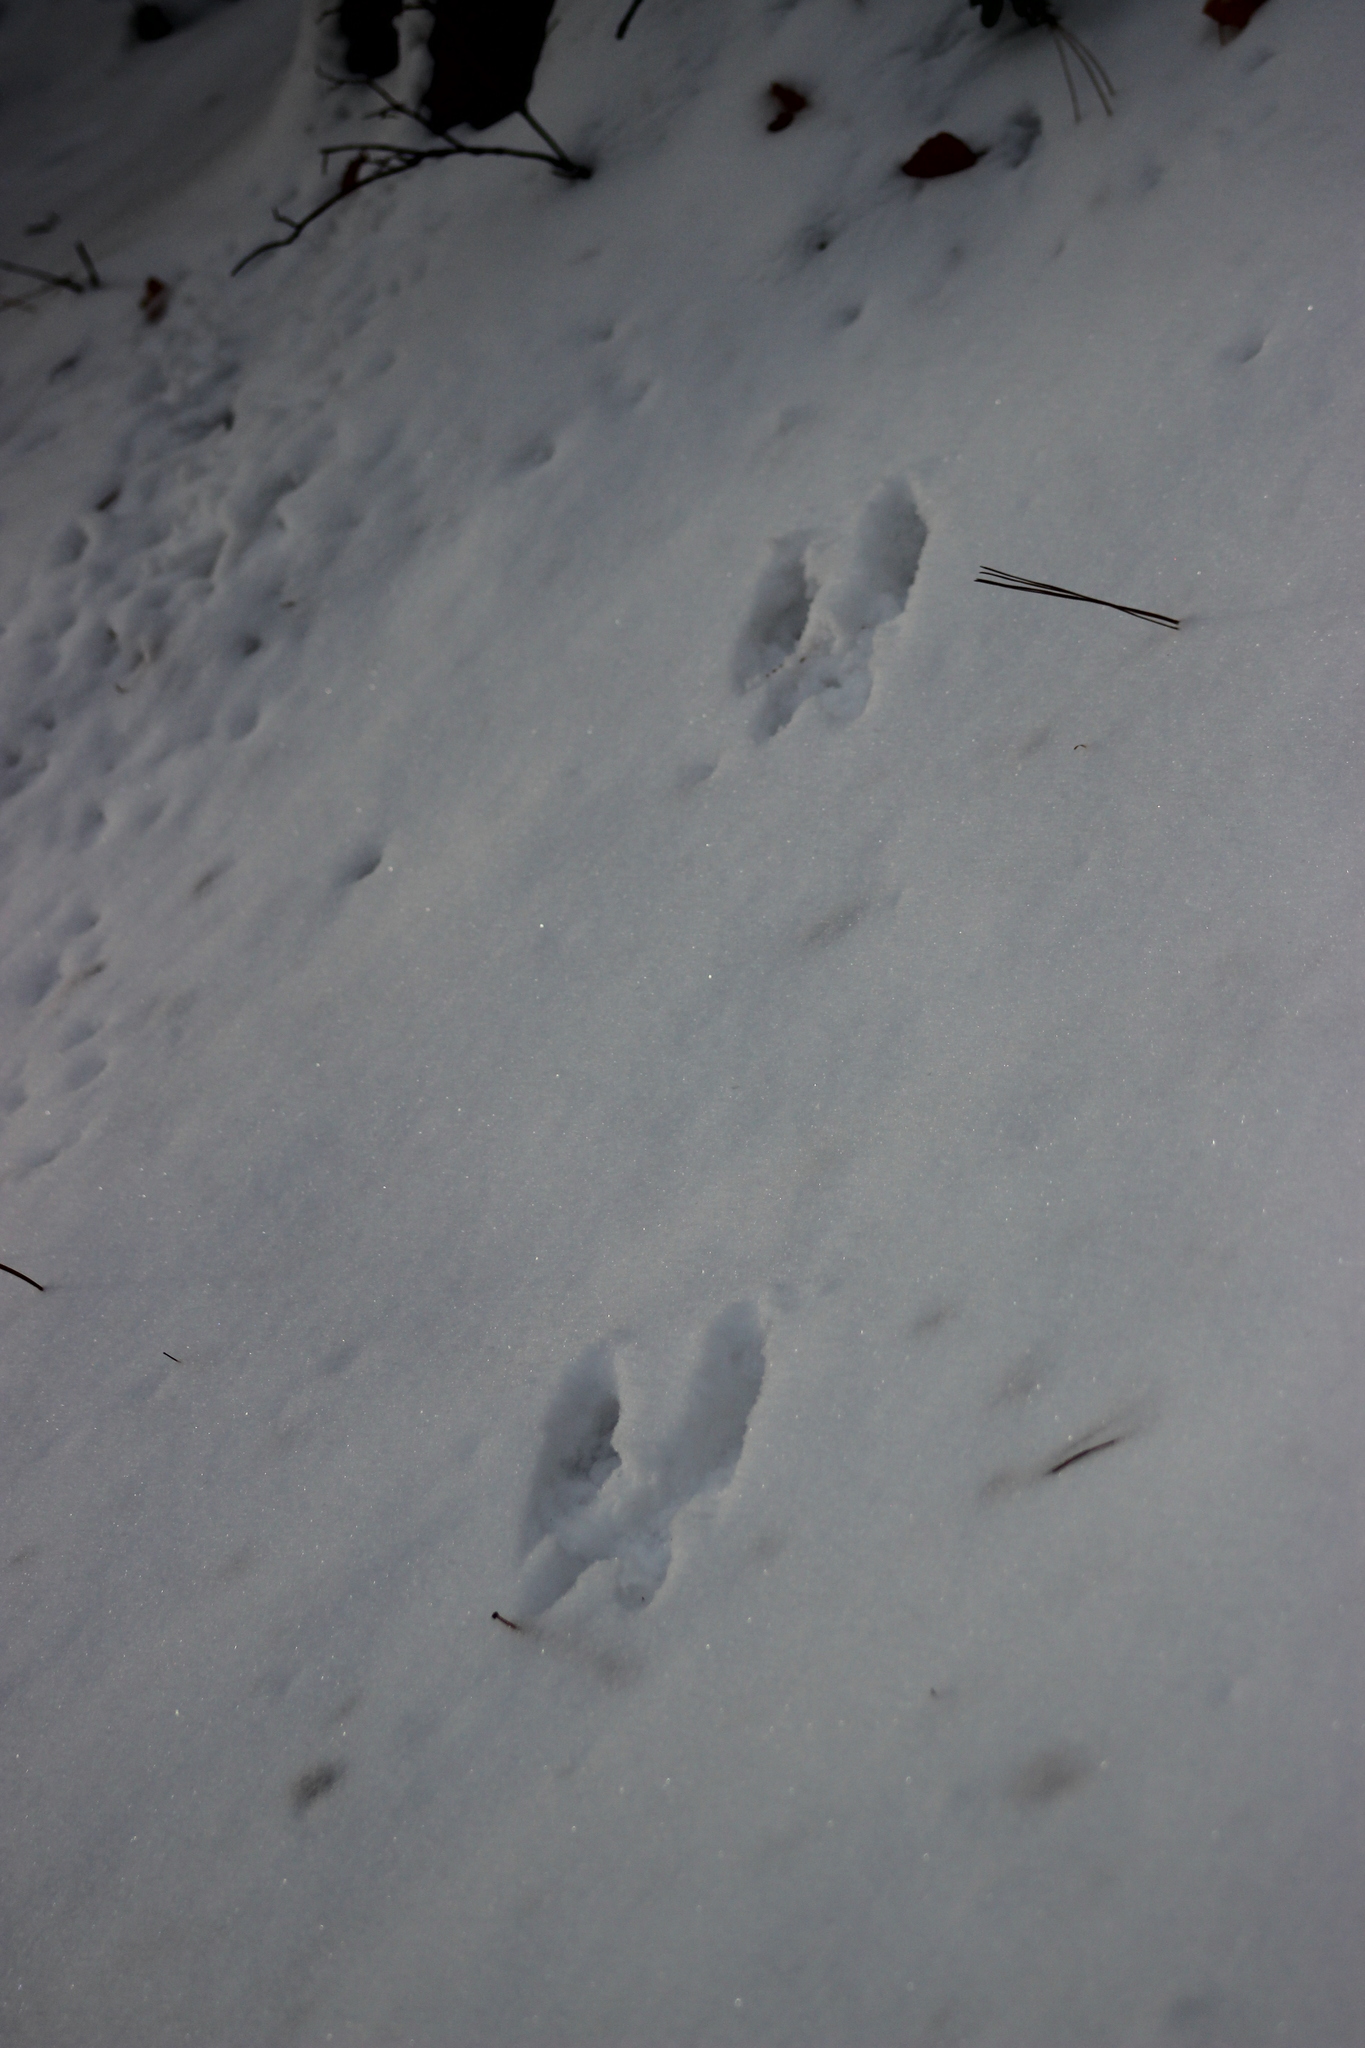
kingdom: Animalia
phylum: Chordata
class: Mammalia
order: Rodentia
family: Sciuridae
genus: Sciurus
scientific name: Sciurus vulgaris
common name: Eurasian red squirrel
